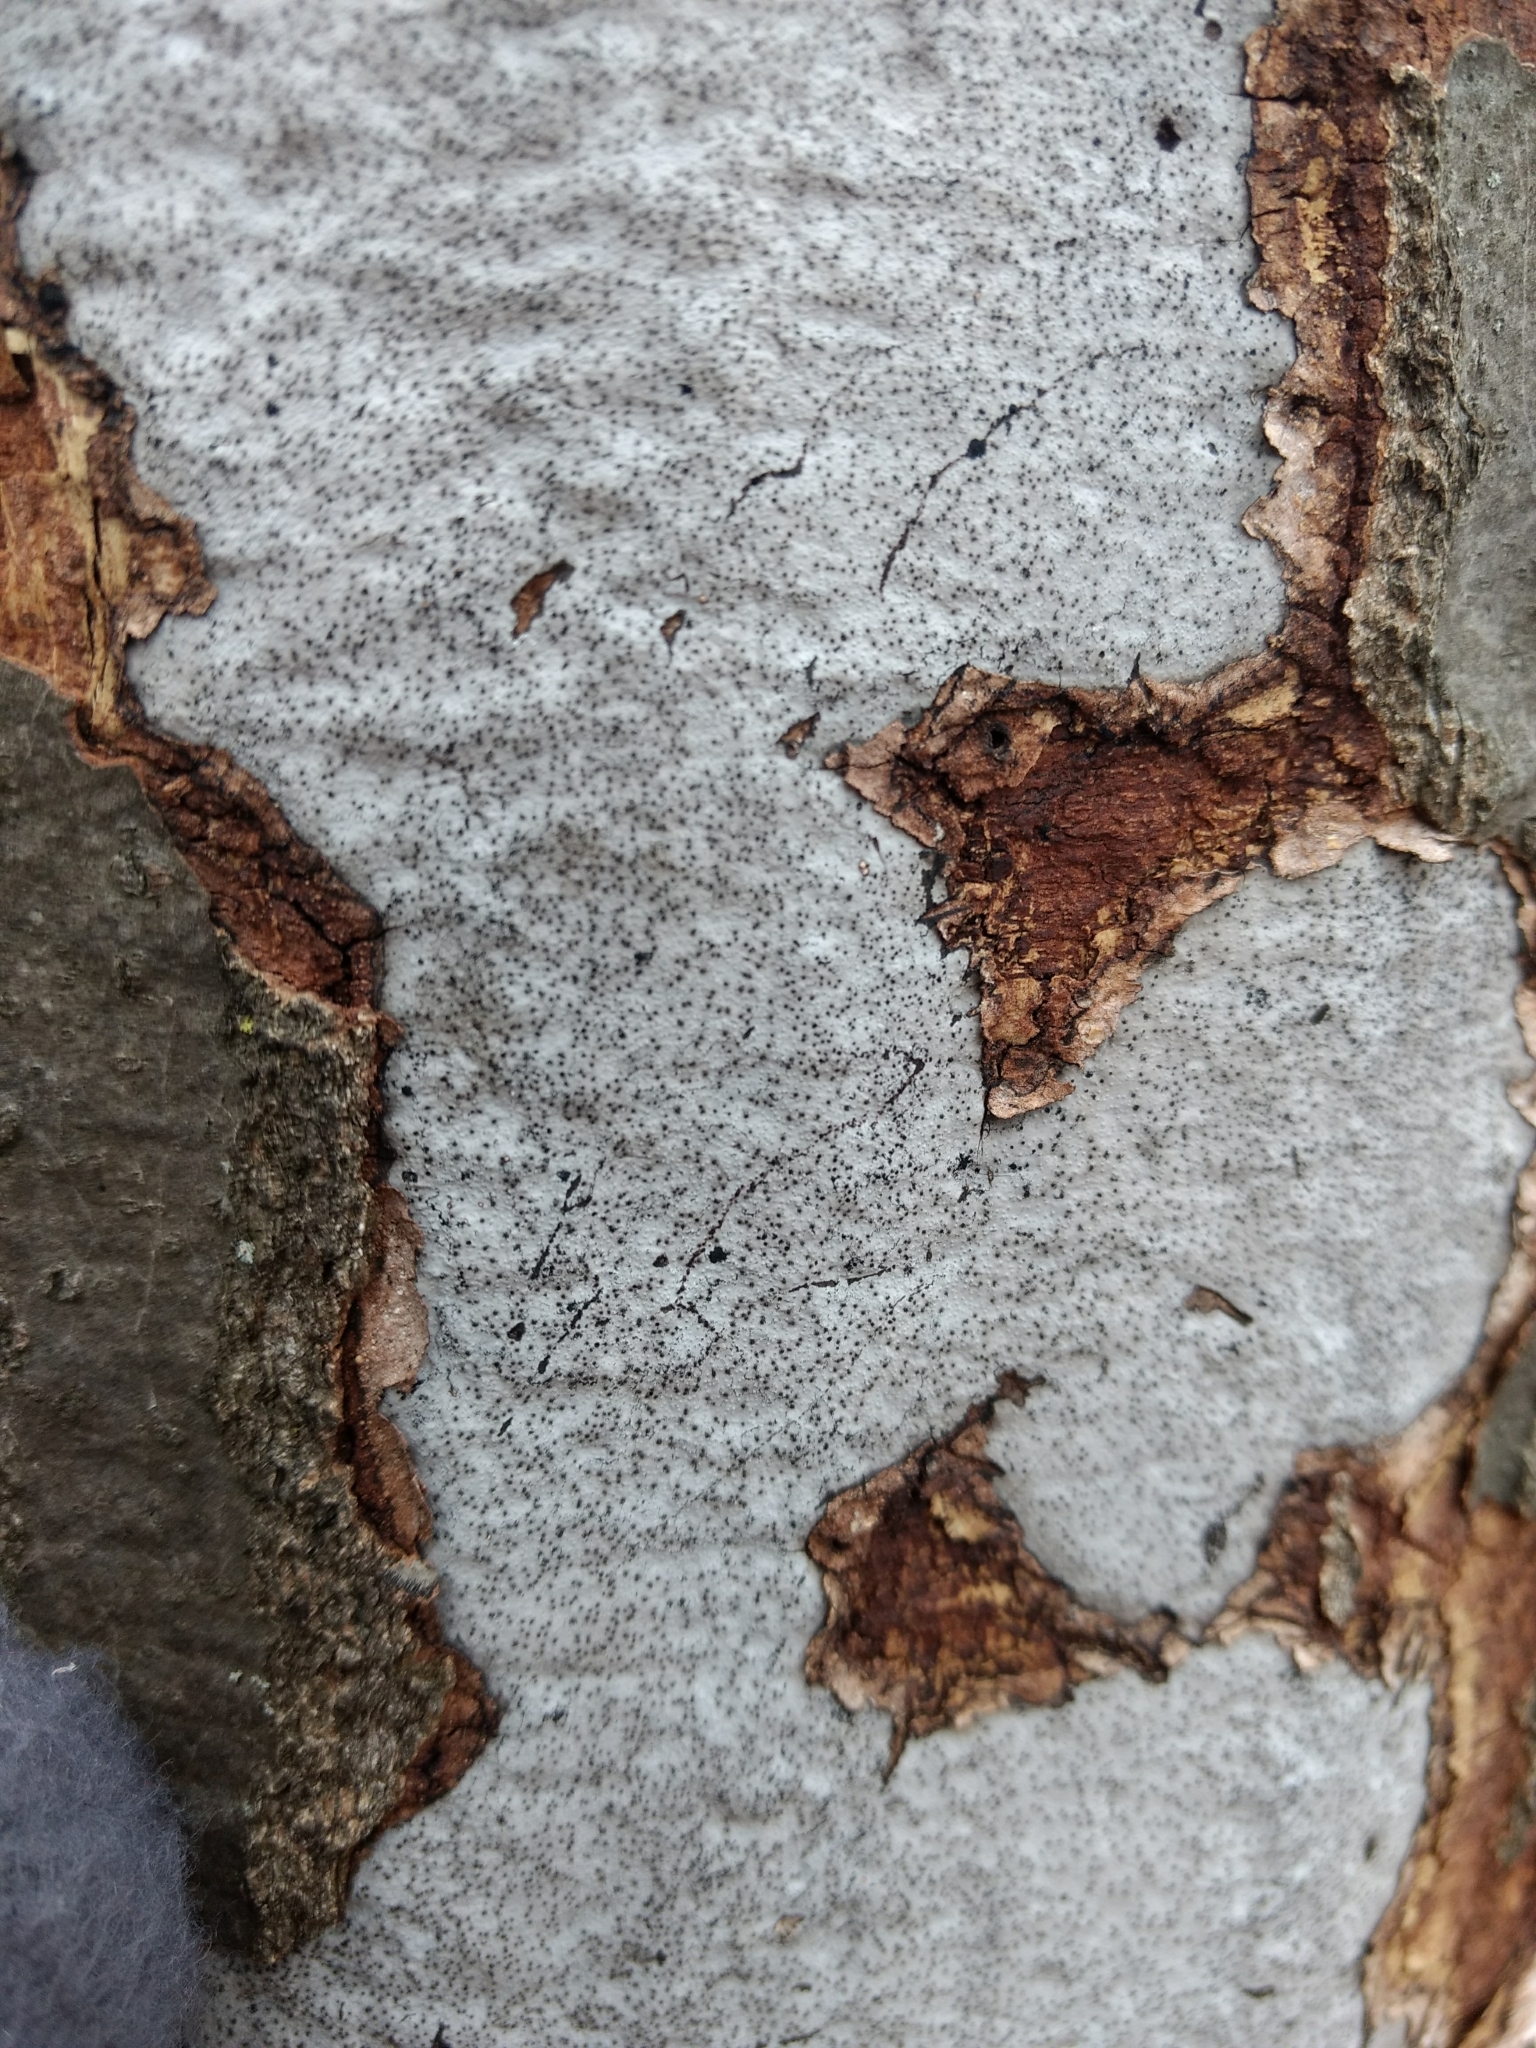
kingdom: Fungi
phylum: Ascomycota
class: Sordariomycetes
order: Xylariales
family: Graphostromataceae
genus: Biscogniauxia
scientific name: Biscogniauxia atropunctata
